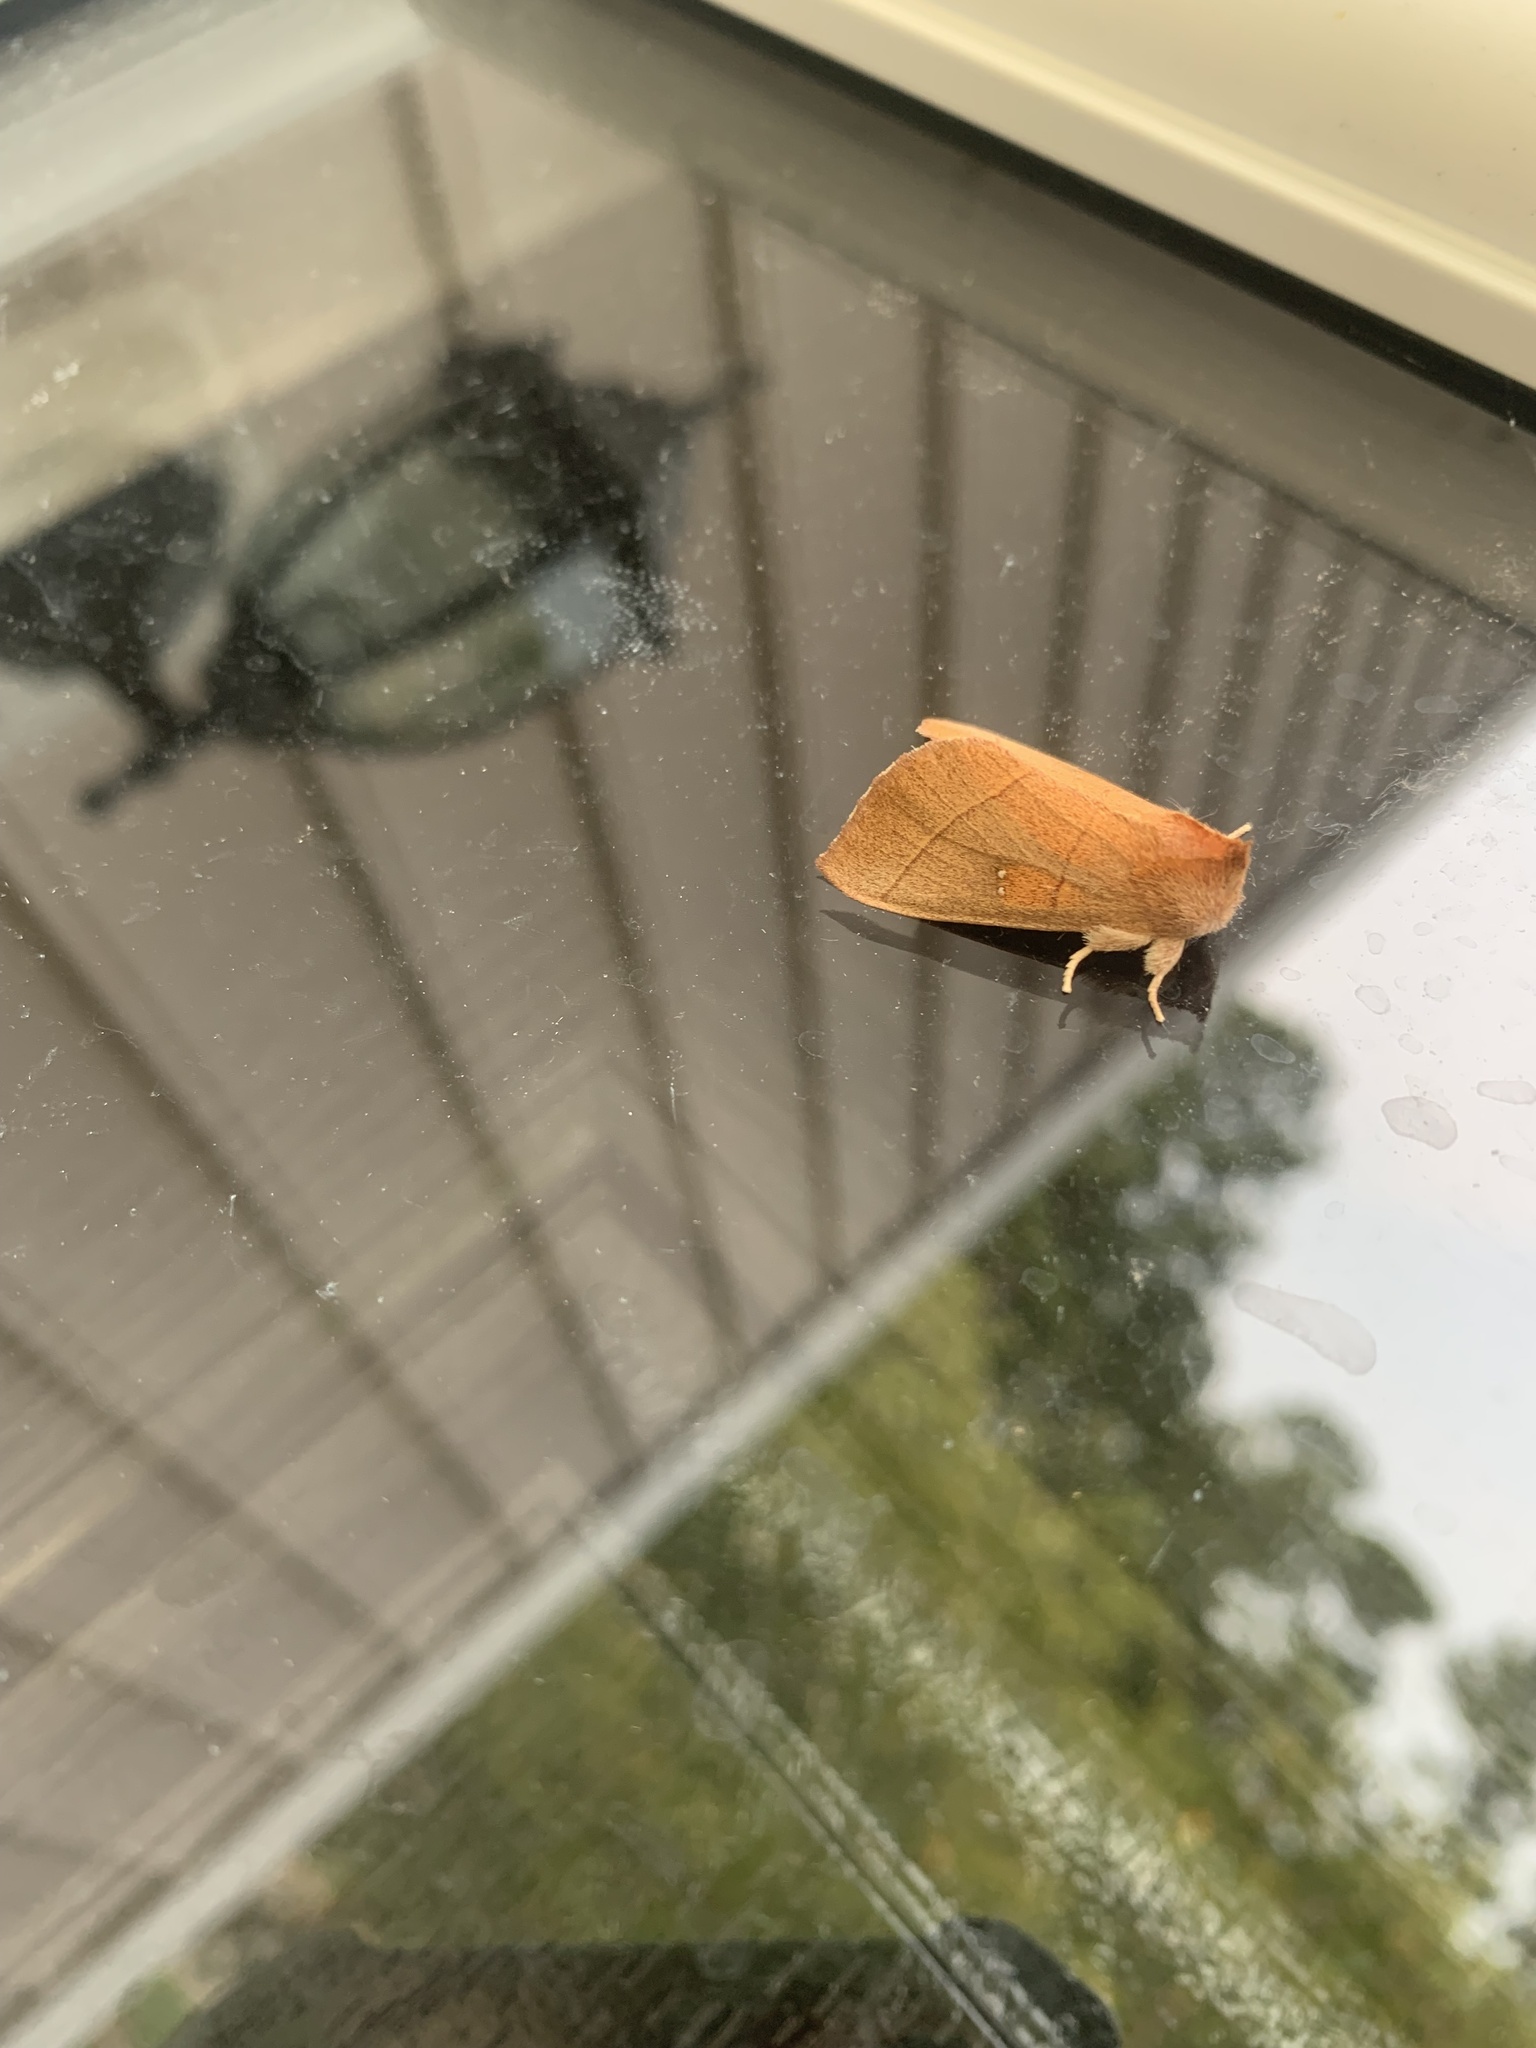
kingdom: Animalia
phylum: Arthropoda
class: Insecta
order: Lepidoptera
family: Notodontidae
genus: Nadata
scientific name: Nadata gibbosa
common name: White-dotted prominent
